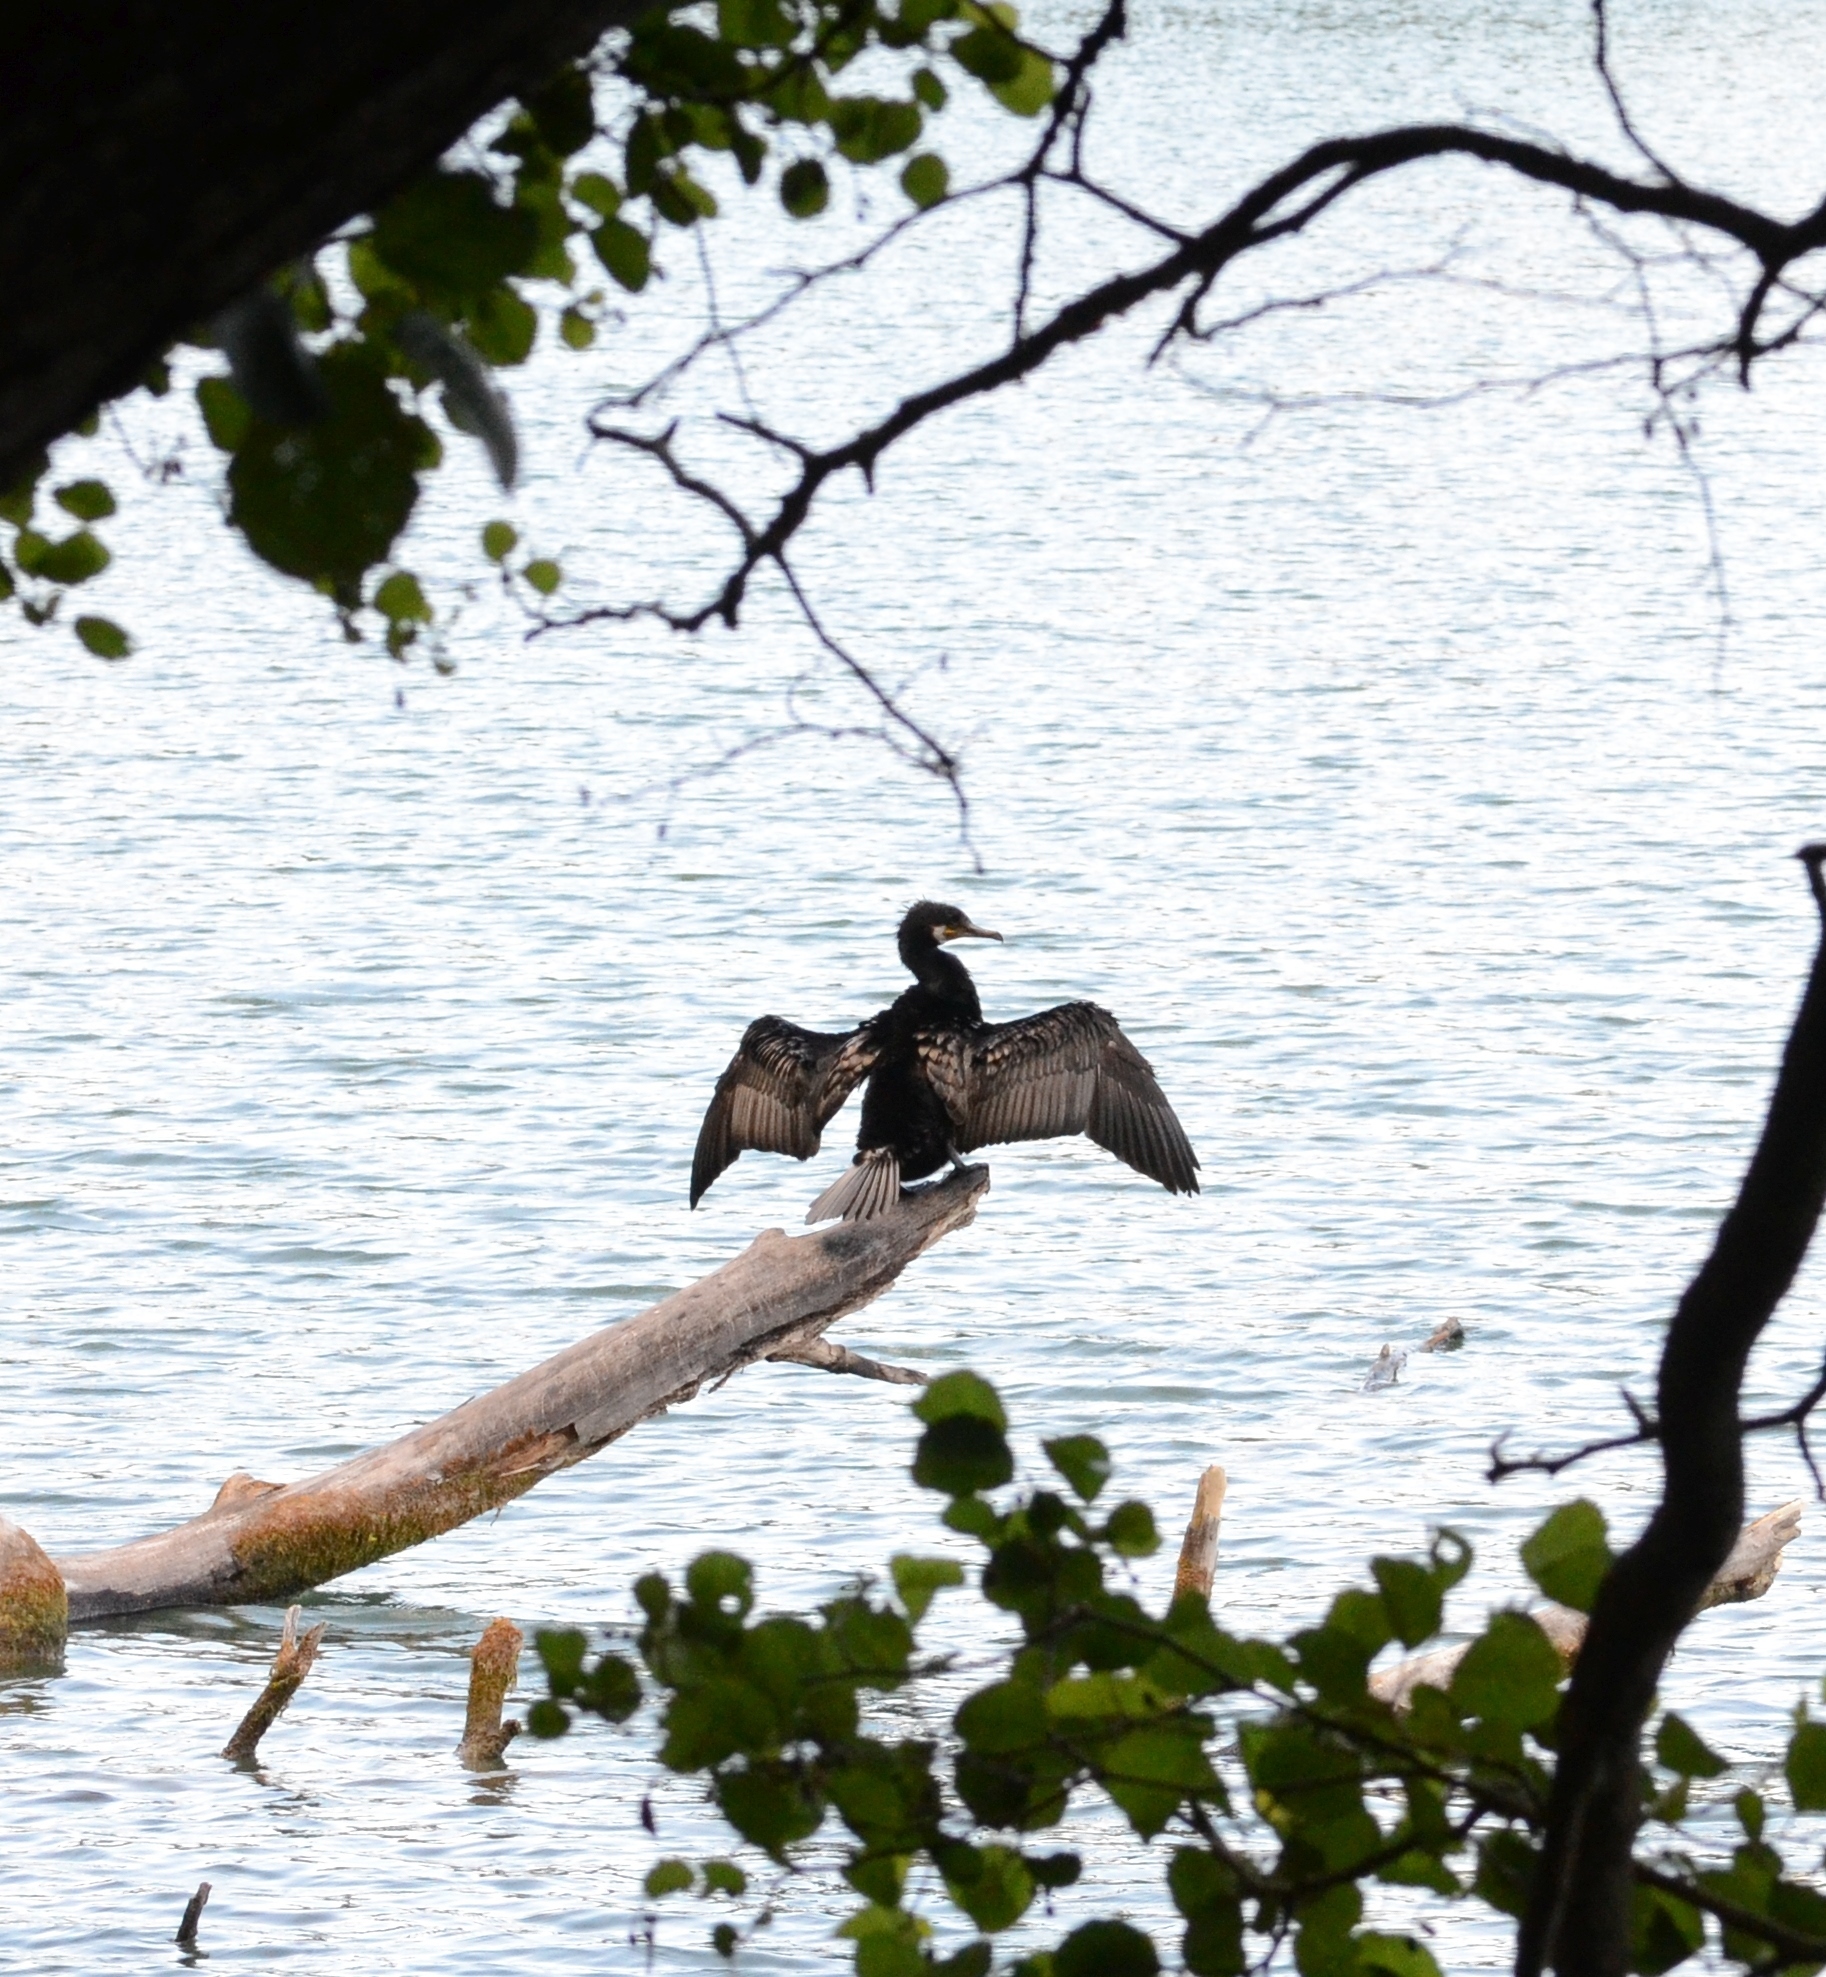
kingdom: Animalia
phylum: Chordata
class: Aves
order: Suliformes
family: Phalacrocoracidae
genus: Phalacrocorax
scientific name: Phalacrocorax carbo
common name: Great cormorant
